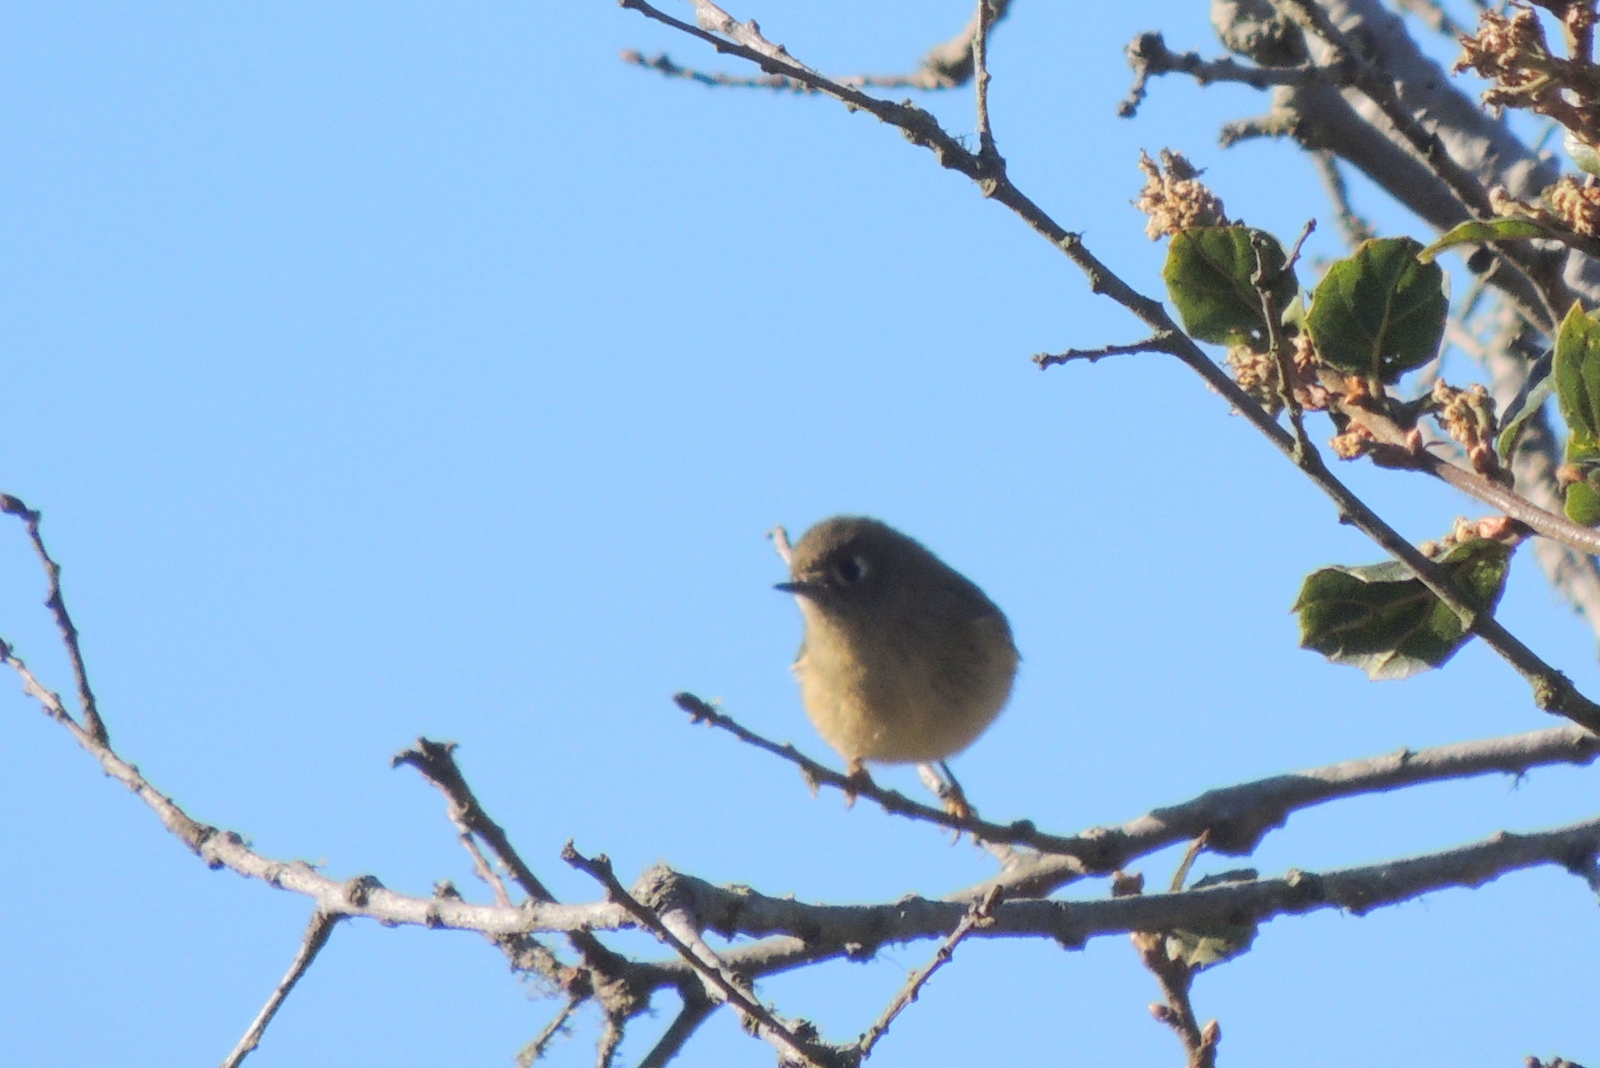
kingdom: Animalia
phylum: Chordata
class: Aves
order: Passeriformes
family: Regulidae
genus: Regulus
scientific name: Regulus calendula
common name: Ruby-crowned kinglet
